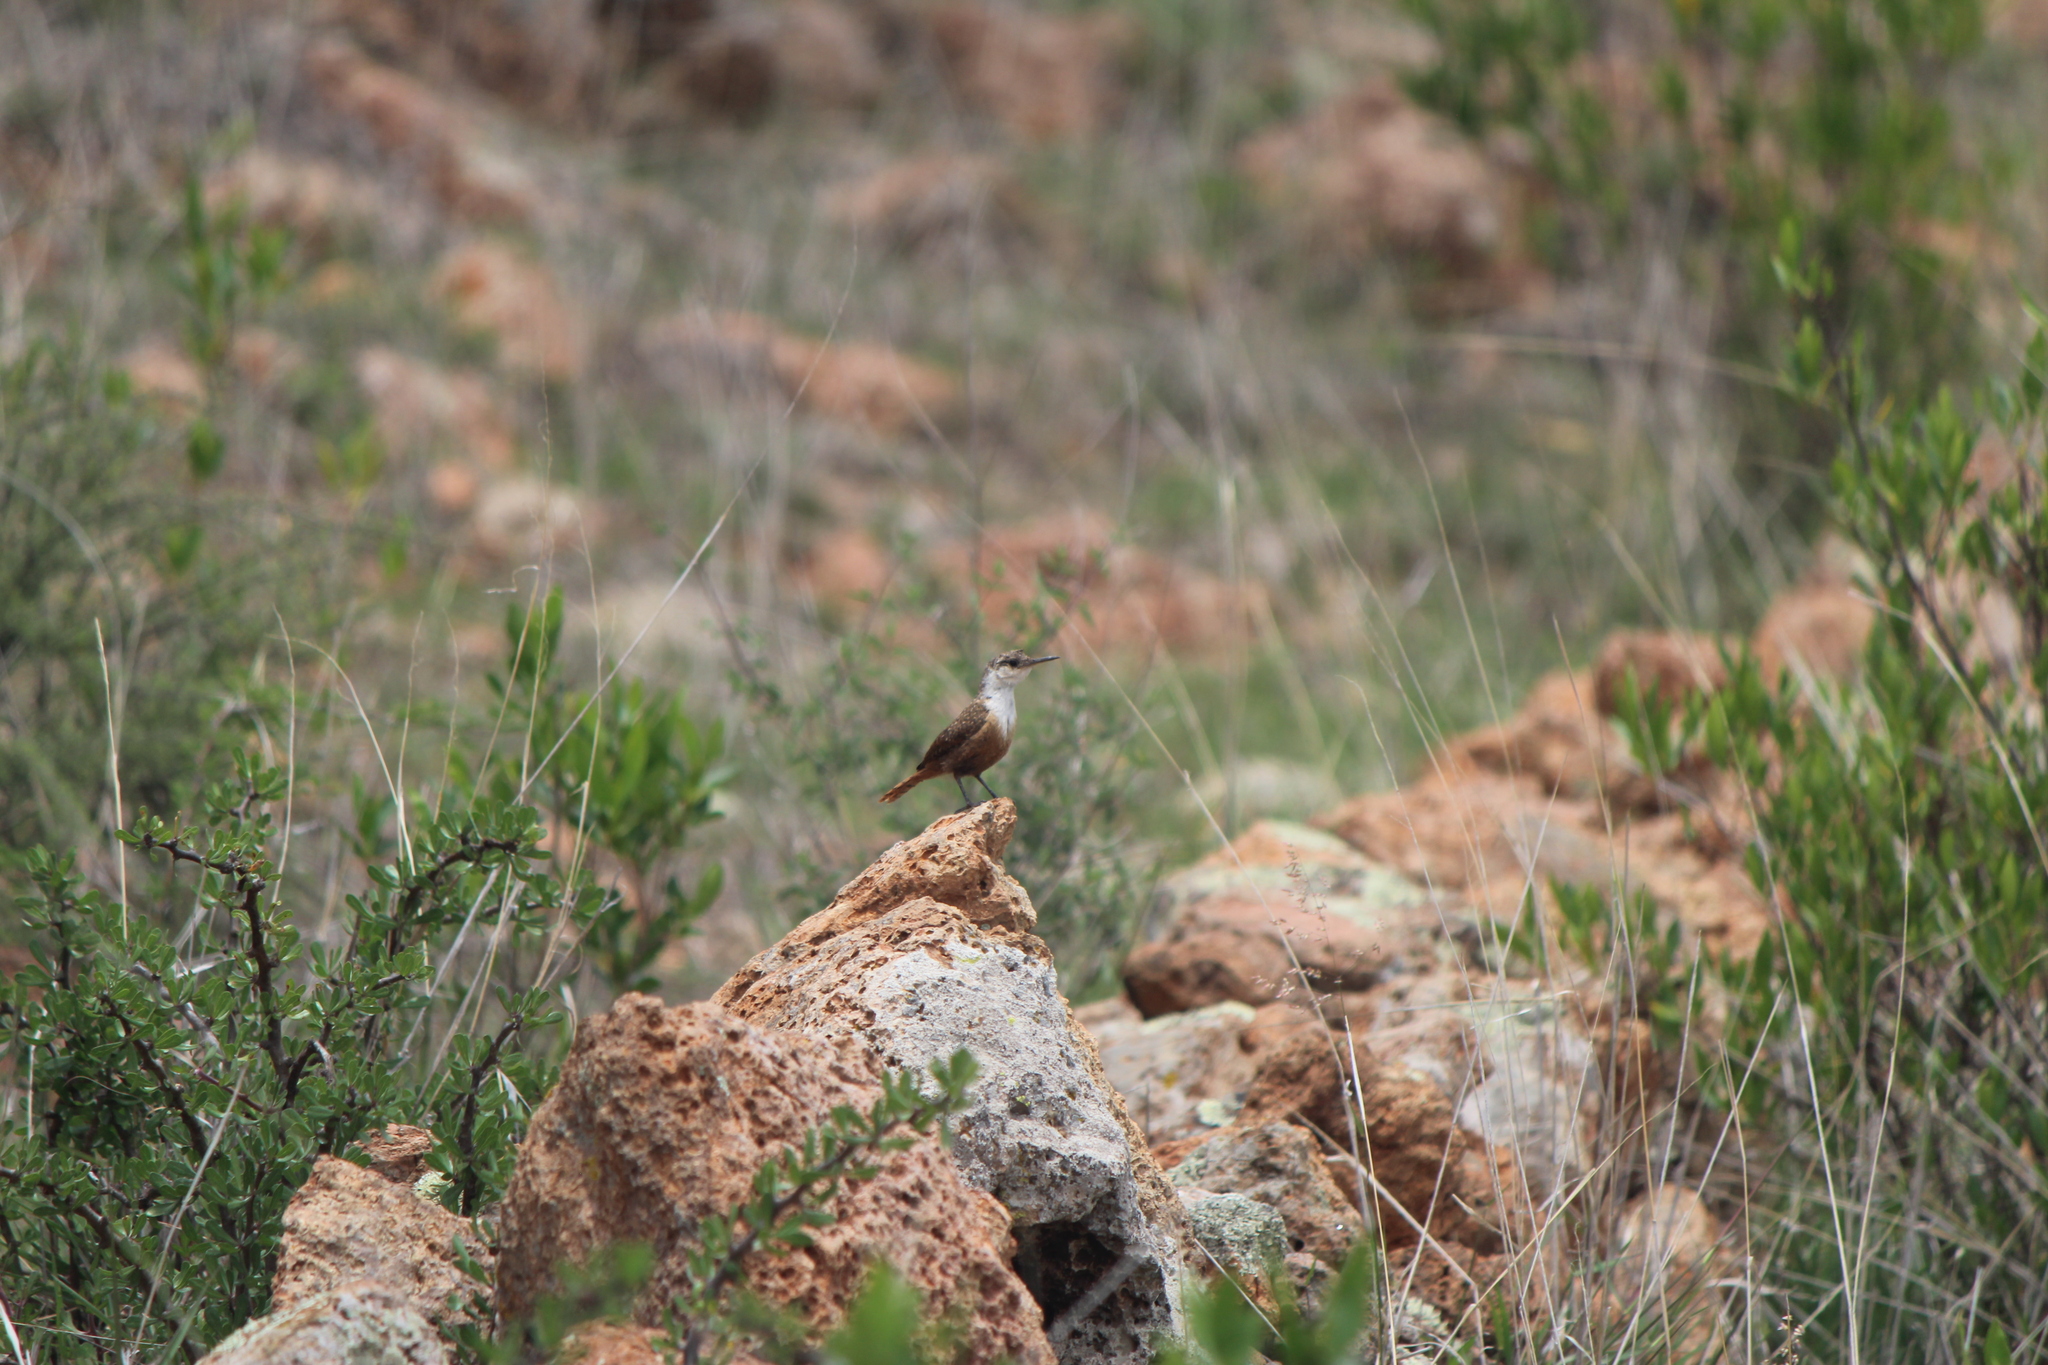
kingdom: Animalia
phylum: Chordata
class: Aves
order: Passeriformes
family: Troglodytidae
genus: Catherpes
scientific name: Catherpes mexicanus
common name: Canyon wren
